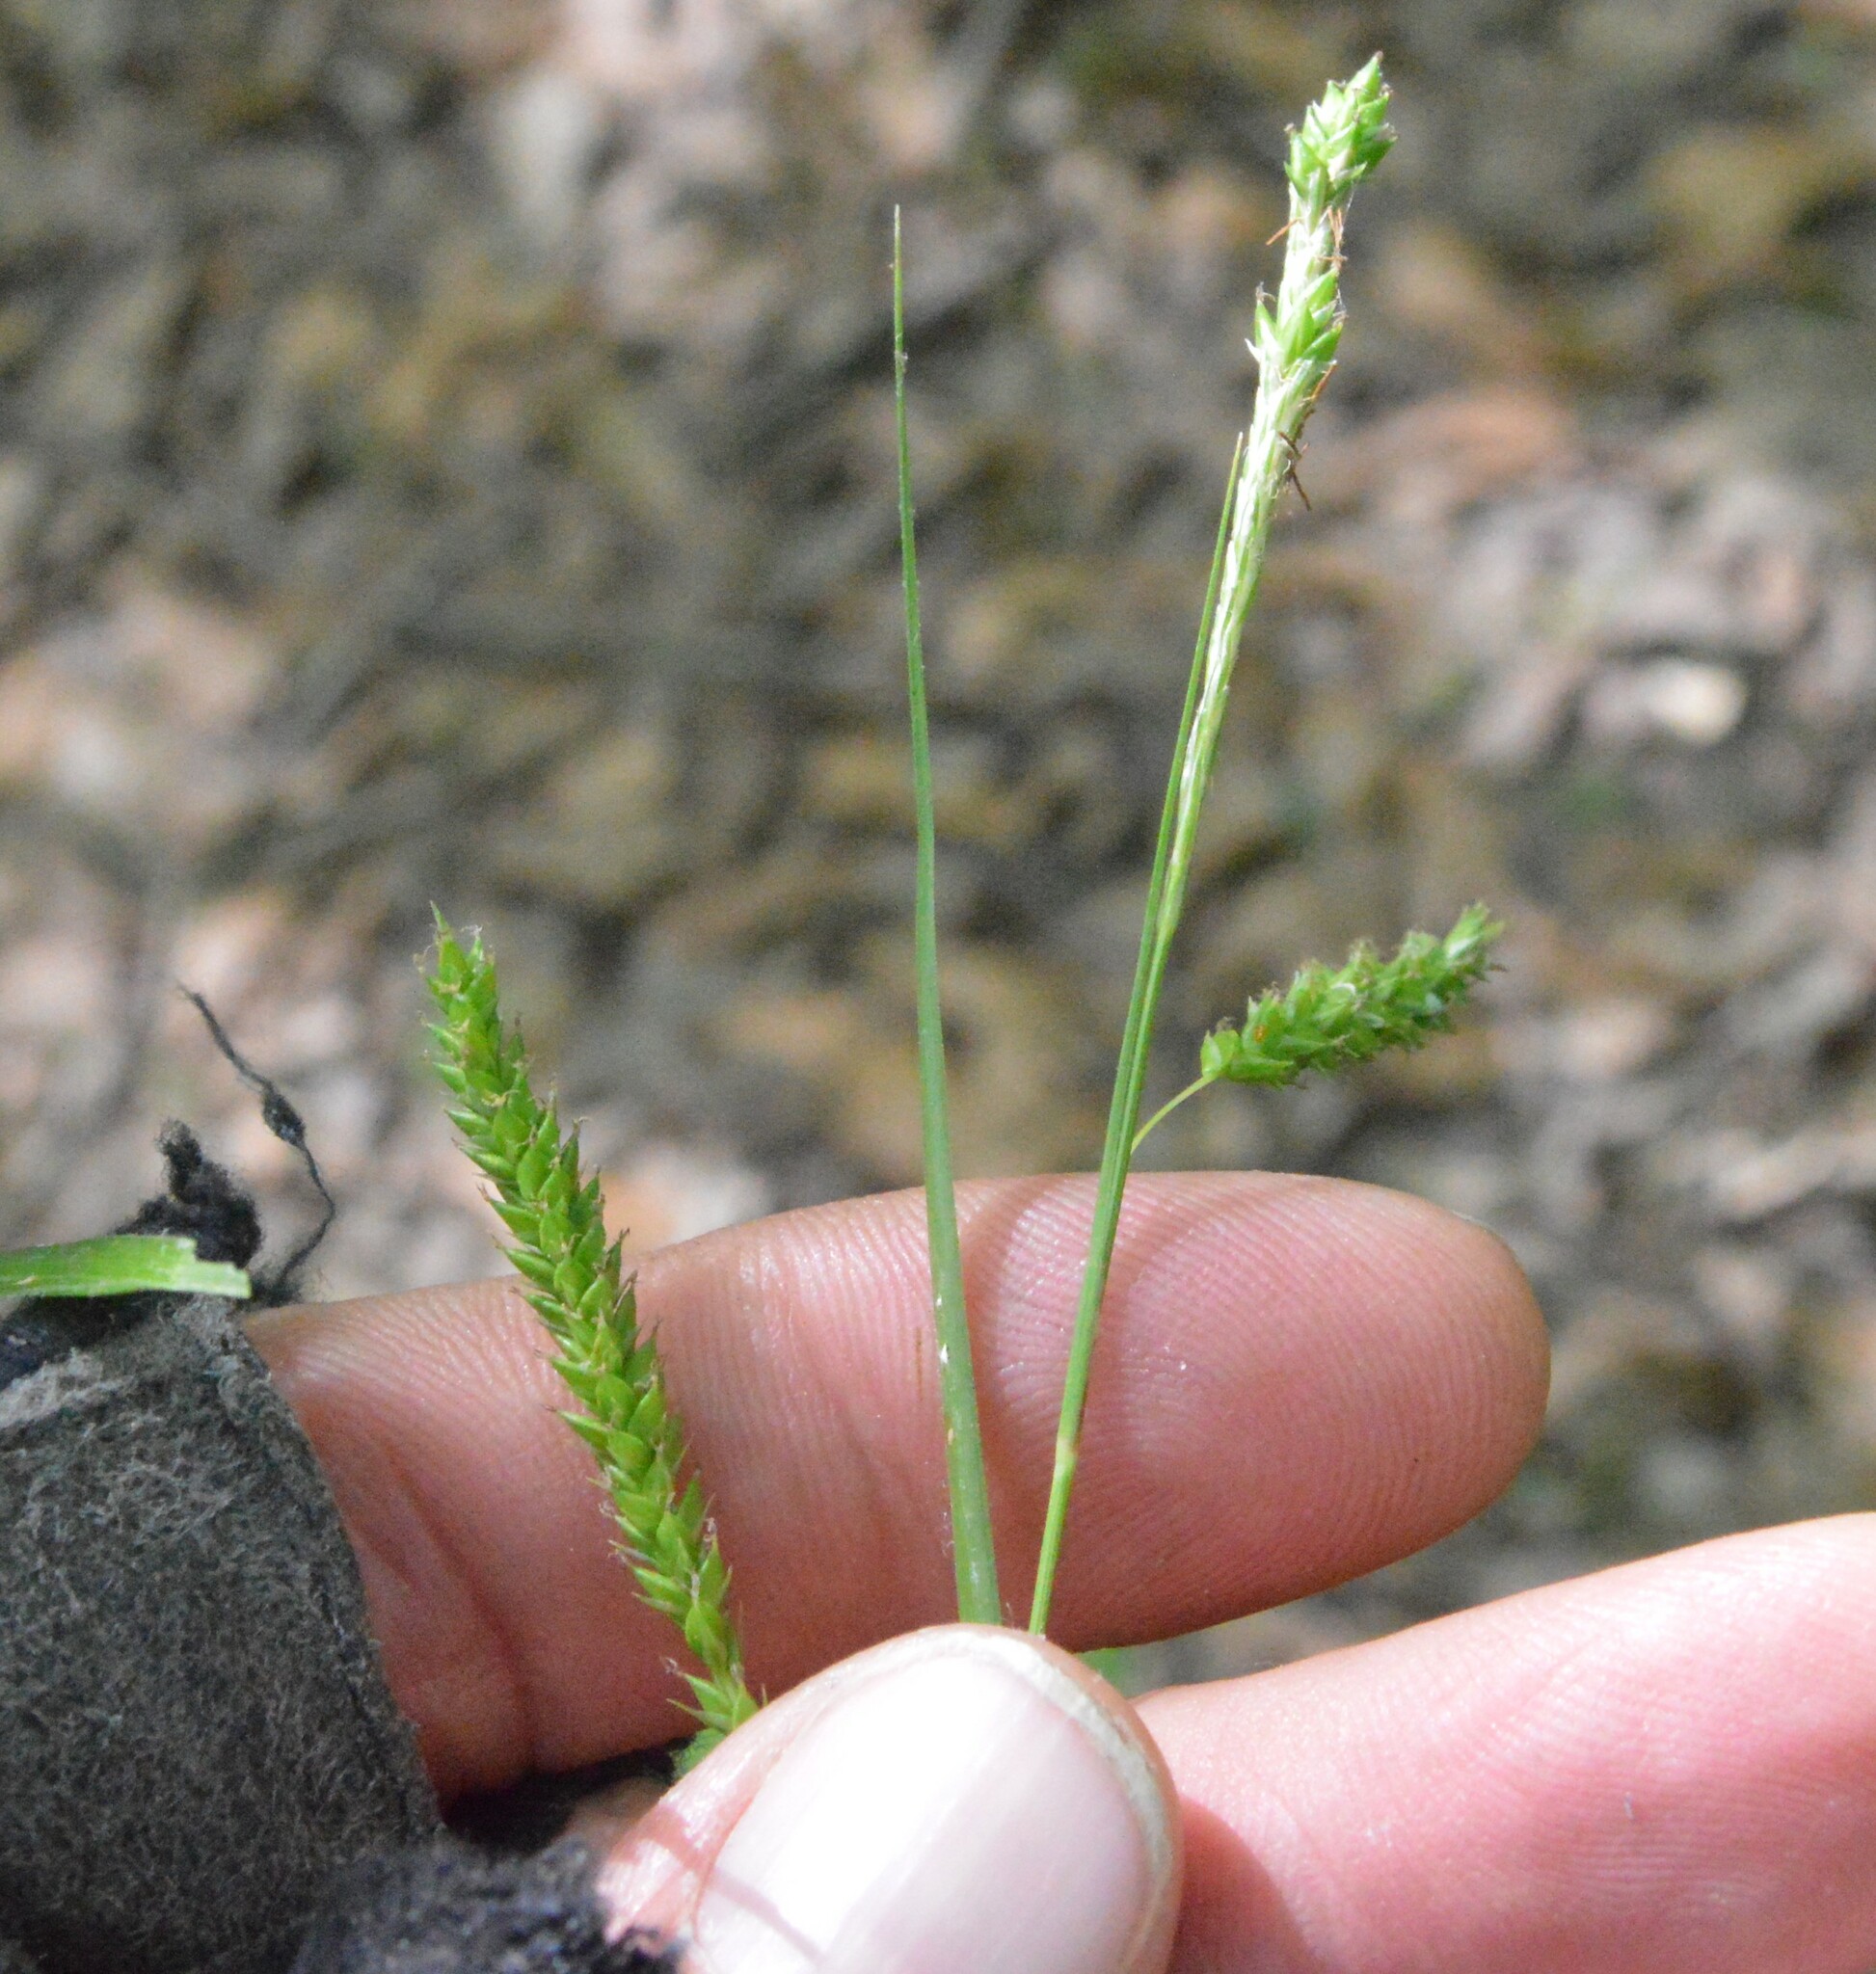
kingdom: Plantae
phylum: Tracheophyta
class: Liliopsida
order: Poales
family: Cyperaceae
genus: Carex
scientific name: Carex oxylepis
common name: Sharpscale sedge
